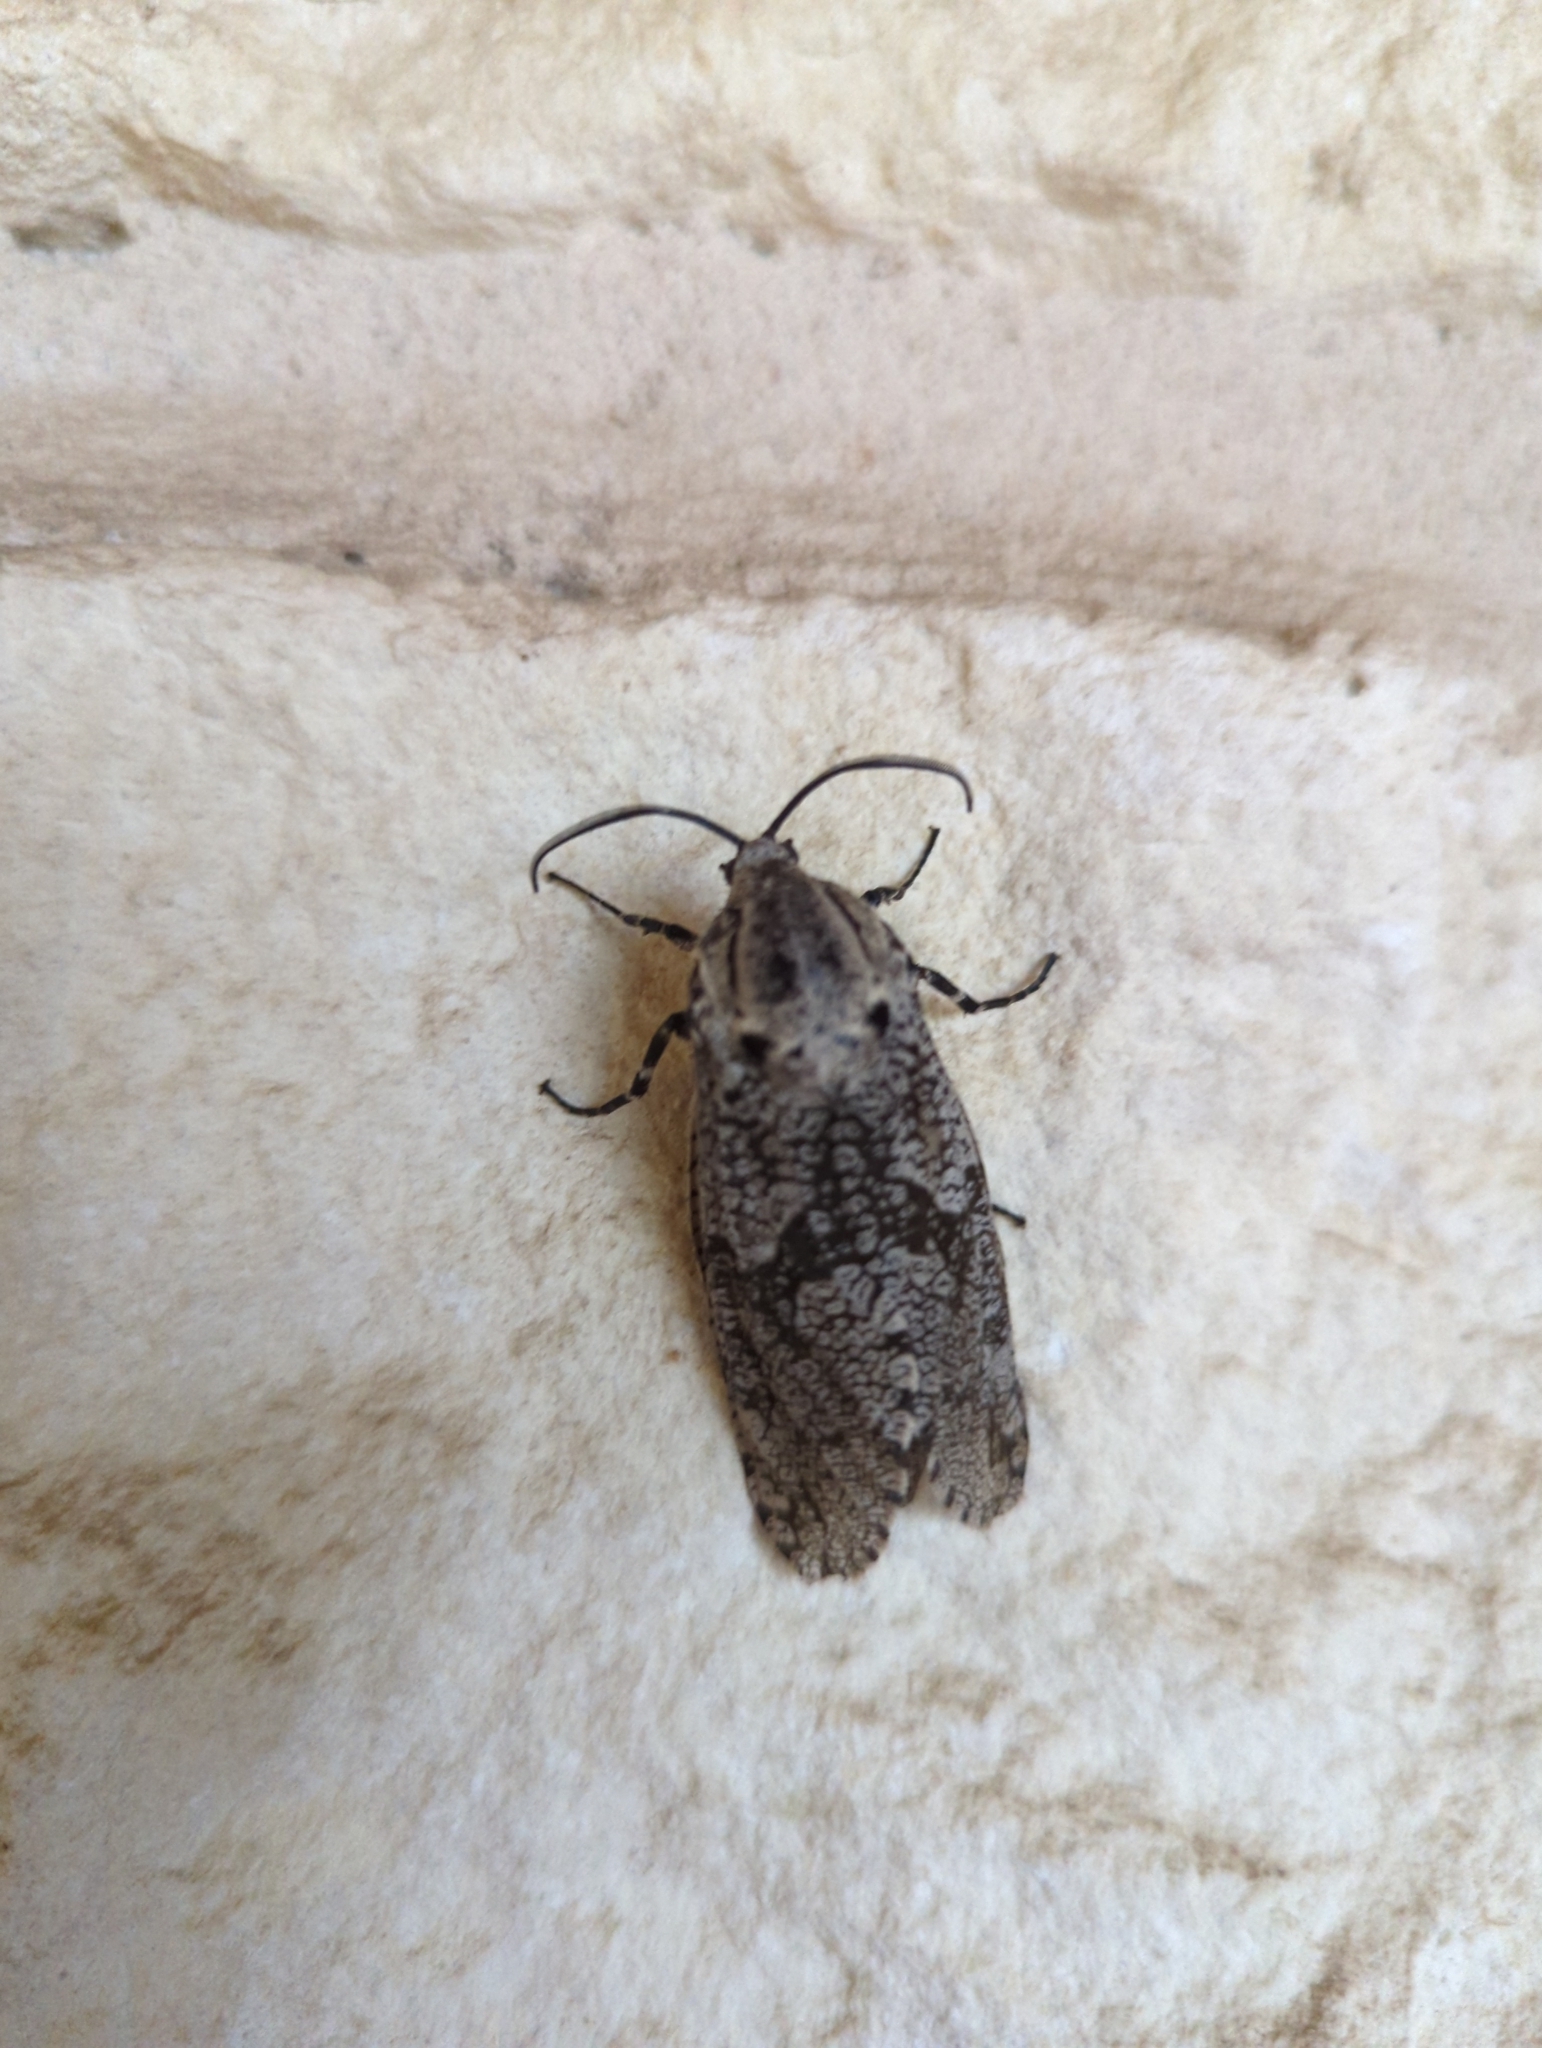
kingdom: Animalia
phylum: Arthropoda
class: Insecta
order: Lepidoptera
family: Cossidae
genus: Prionoxystus
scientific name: Prionoxystus robiniae
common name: Carpenterworm
